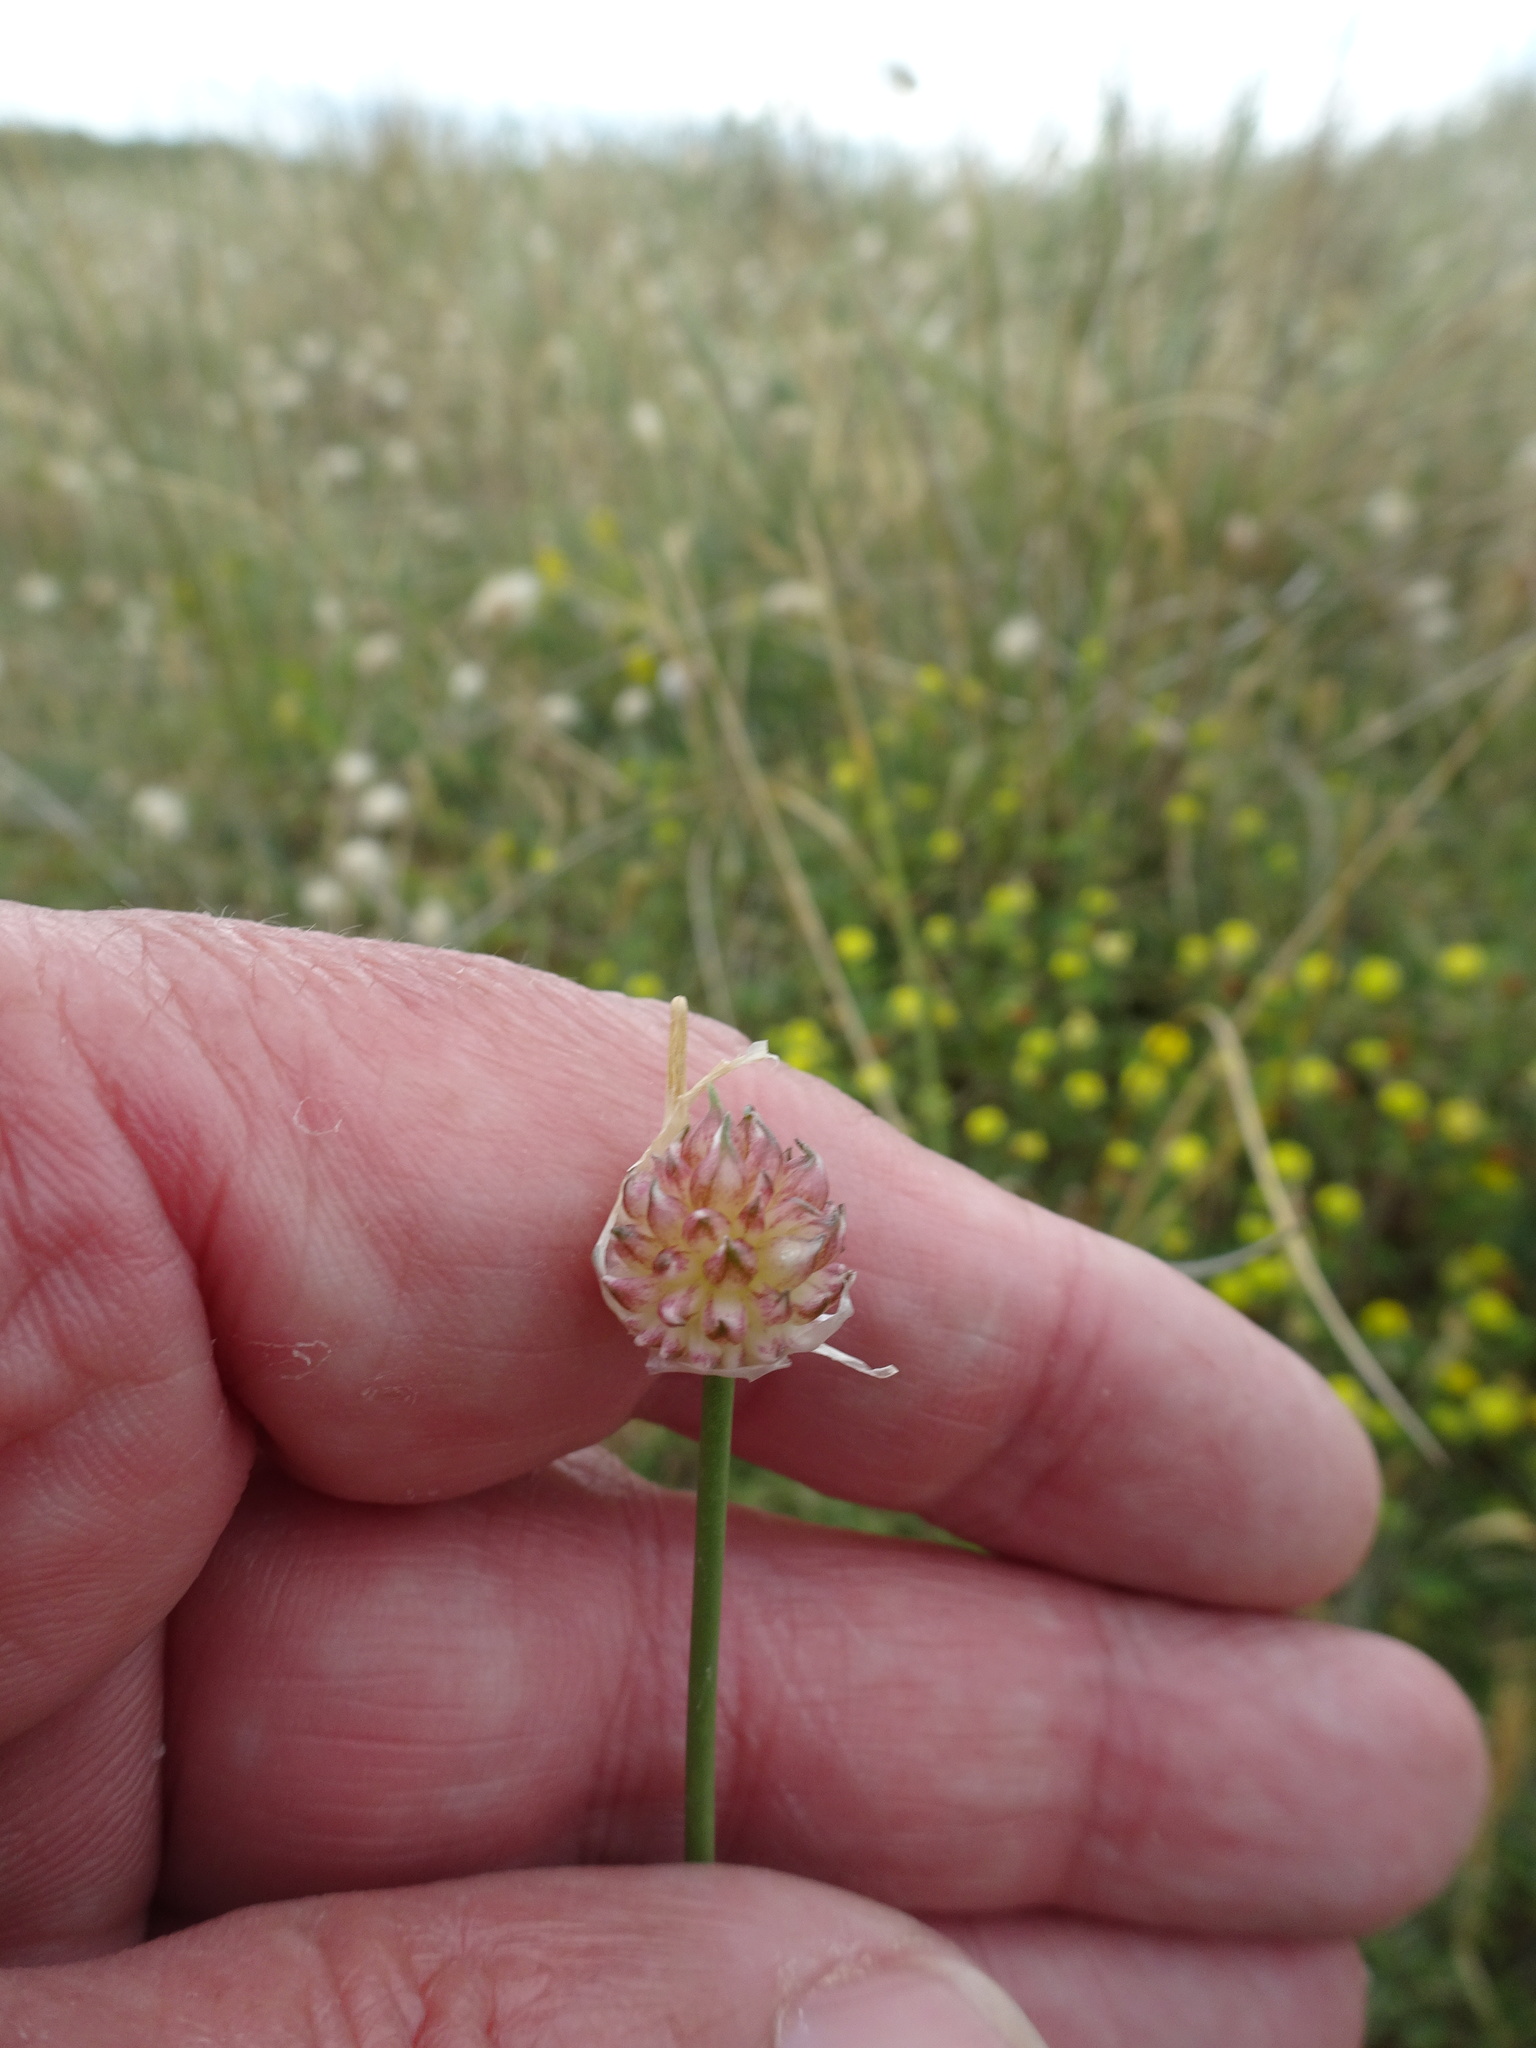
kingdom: Plantae
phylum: Tracheophyta
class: Liliopsida
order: Asparagales
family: Amaryllidaceae
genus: Allium
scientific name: Allium vineale
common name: Crow garlic
